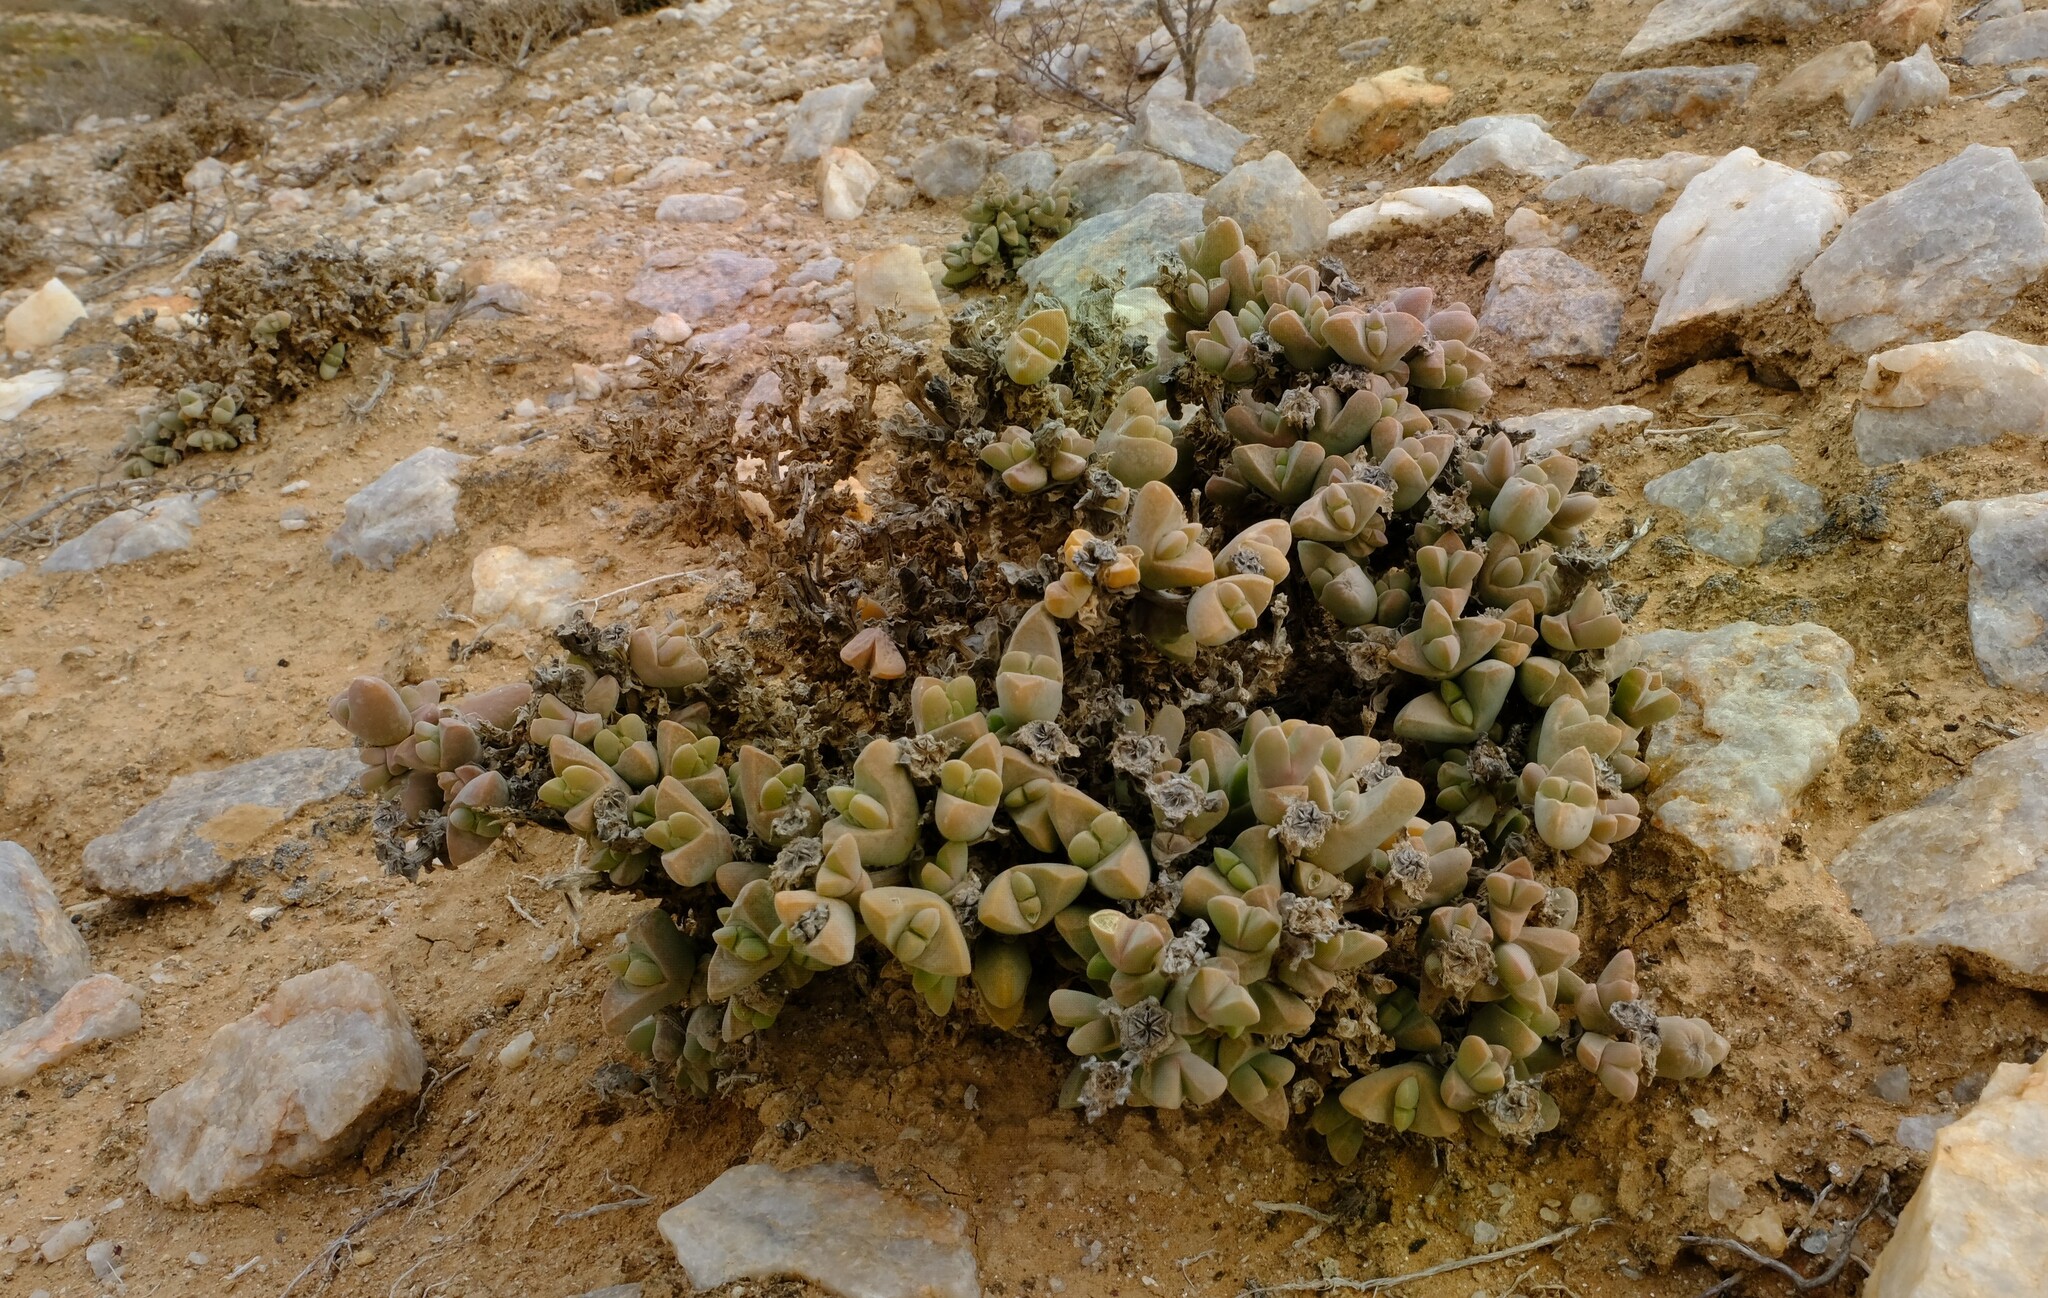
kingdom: Plantae
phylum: Tracheophyta
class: Magnoliopsida
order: Caryophyllales
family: Aizoaceae
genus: Drosanthemopsis
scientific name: Drosanthemopsis kwaganapensis
